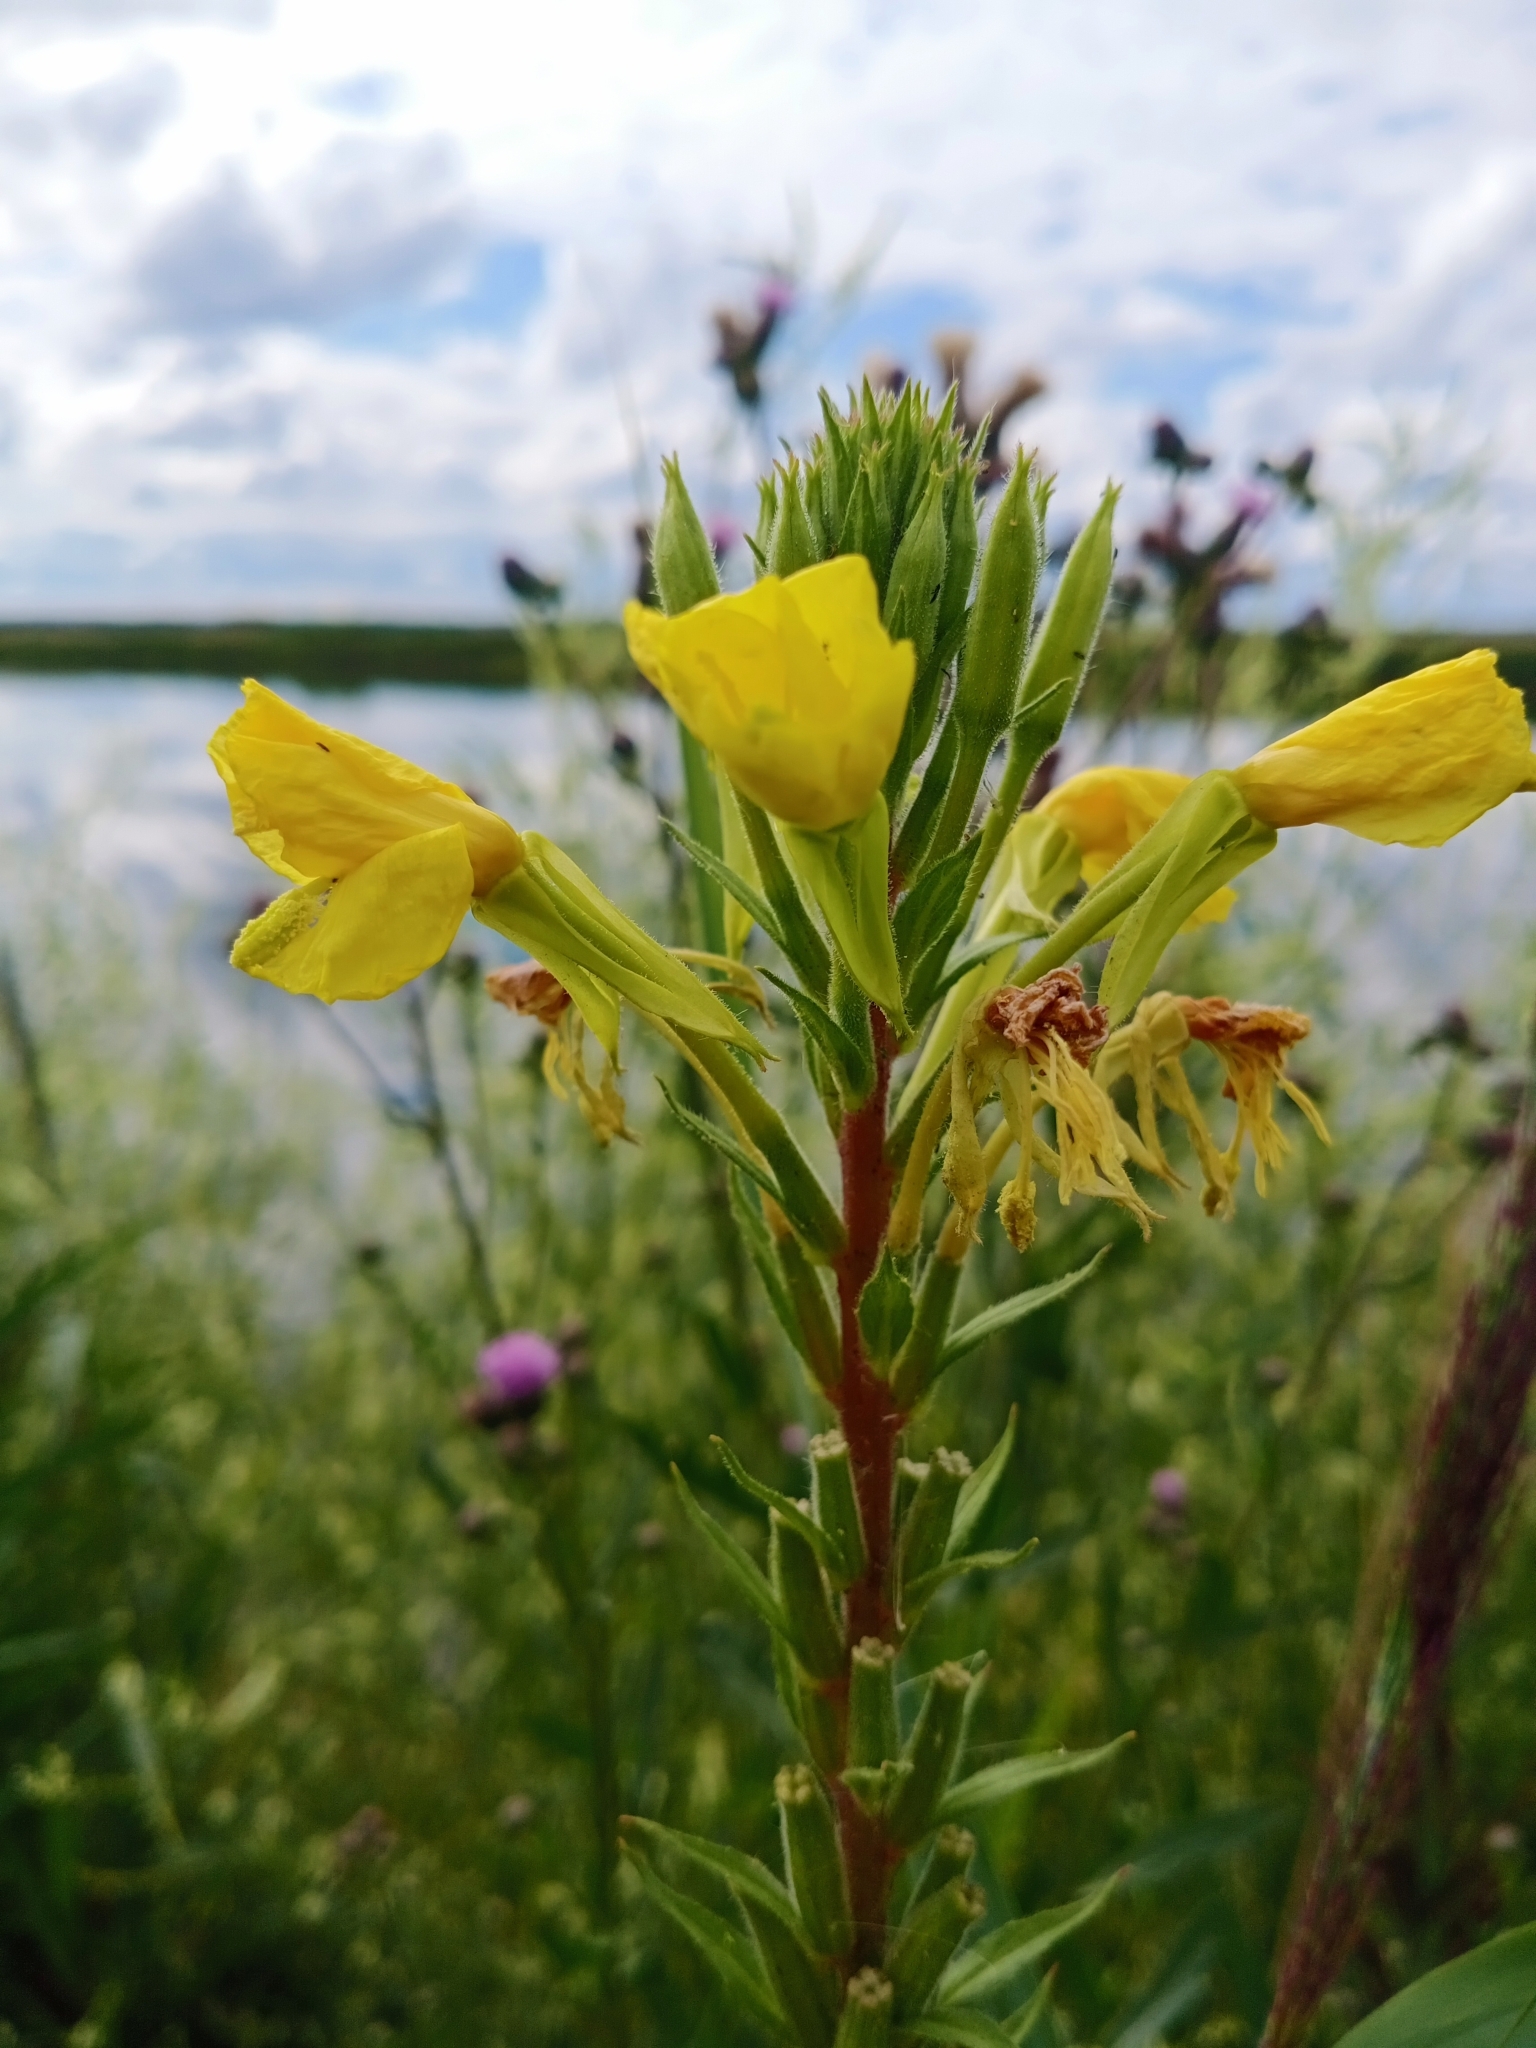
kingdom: Plantae
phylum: Tracheophyta
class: Magnoliopsida
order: Myrtales
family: Onagraceae
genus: Oenothera
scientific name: Oenothera rubricaulis
